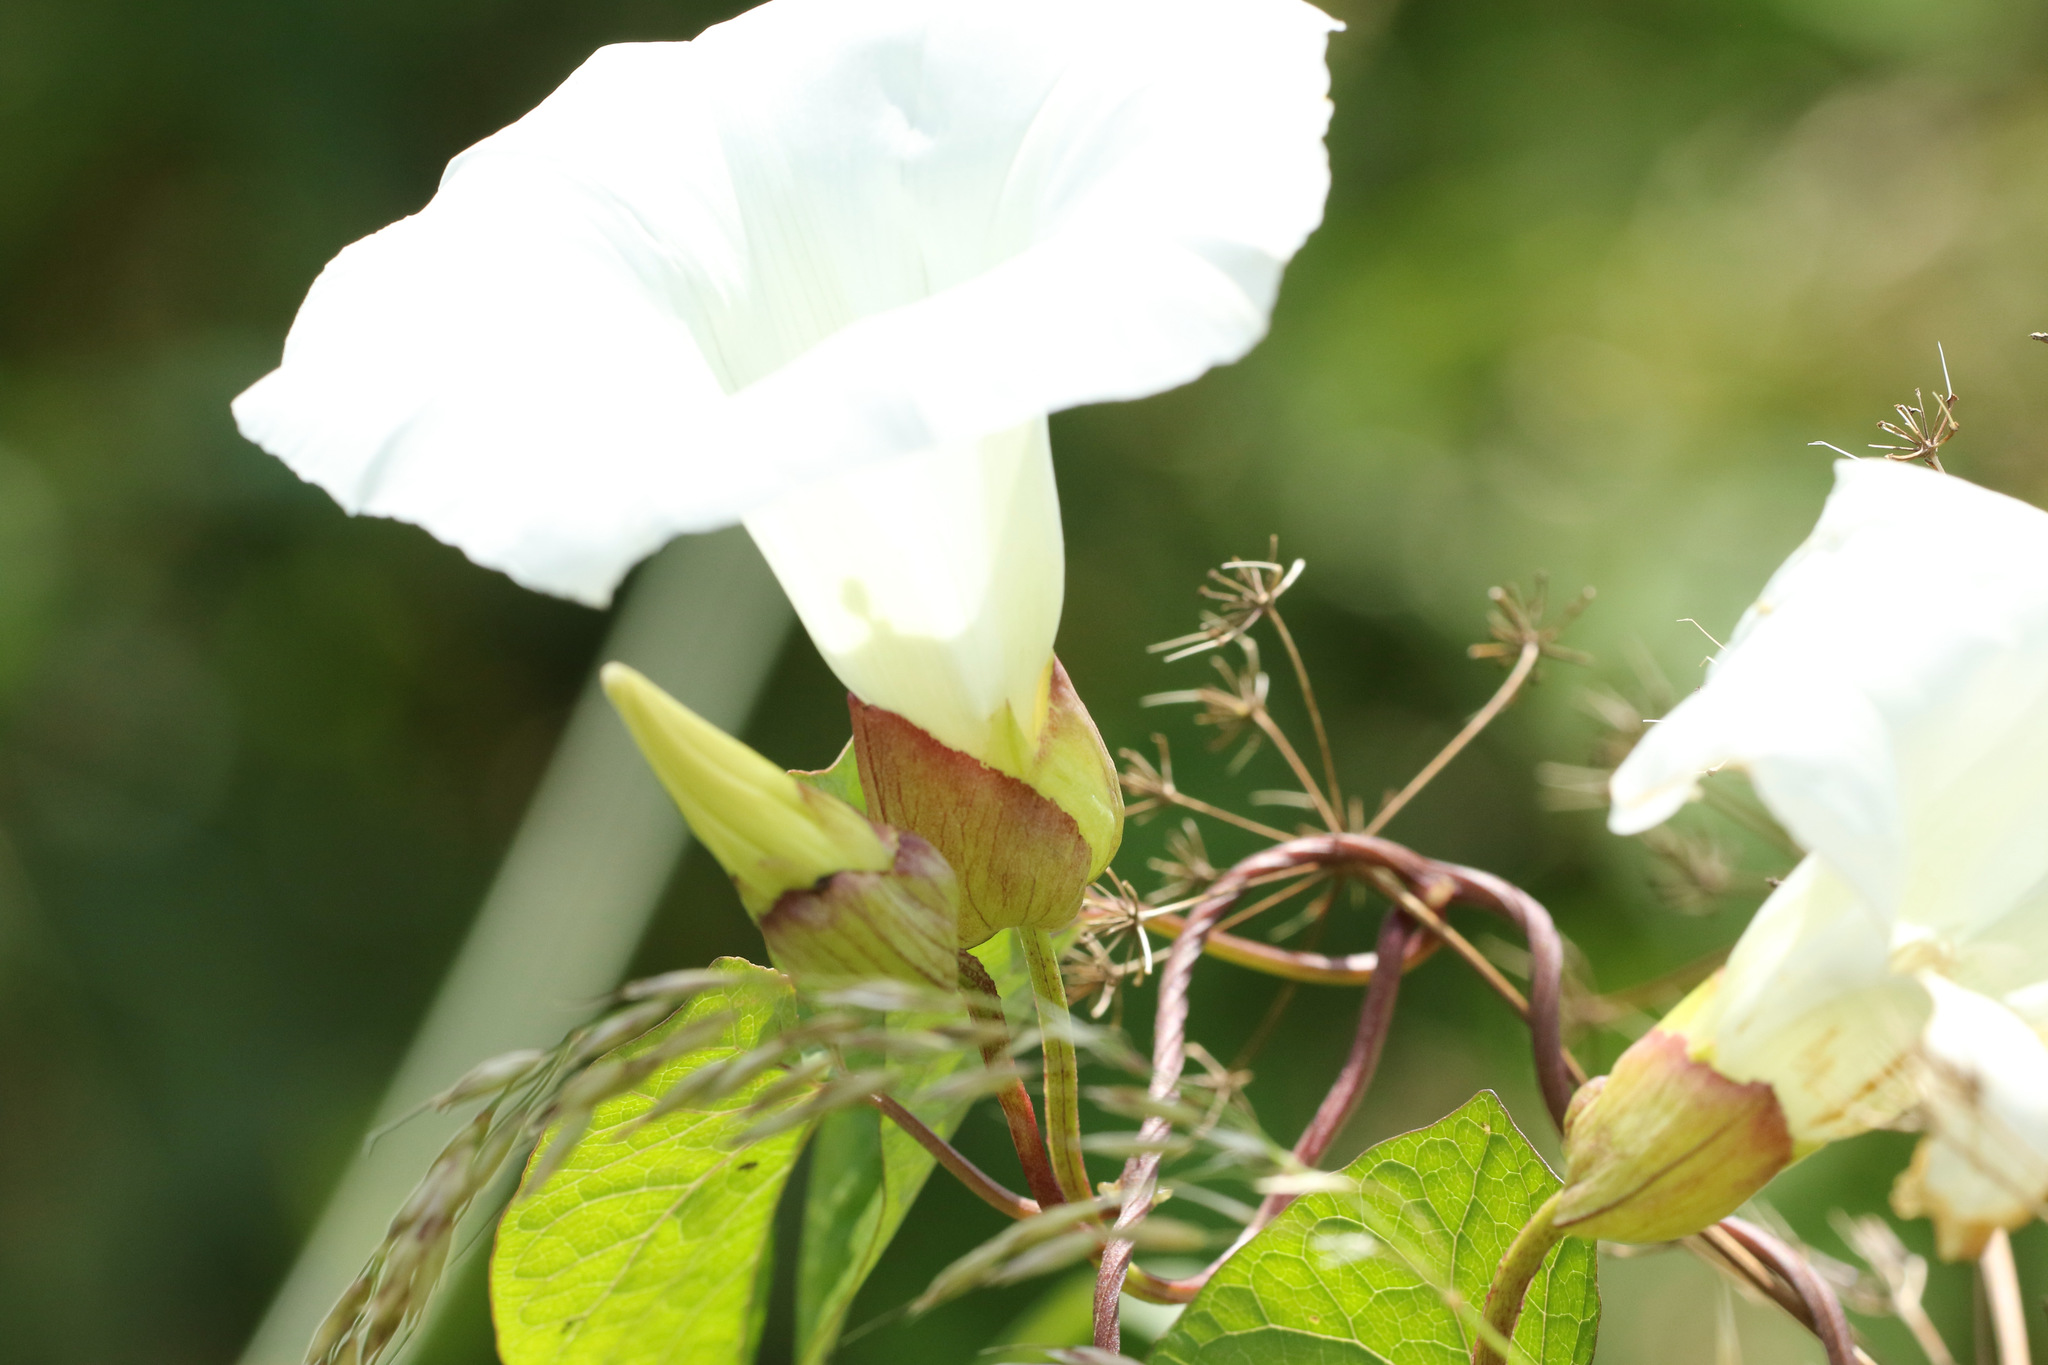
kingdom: Plantae
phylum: Tracheophyta
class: Magnoliopsida
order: Solanales
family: Convolvulaceae
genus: Calystegia
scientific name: Calystegia silvatica
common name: Large bindweed
